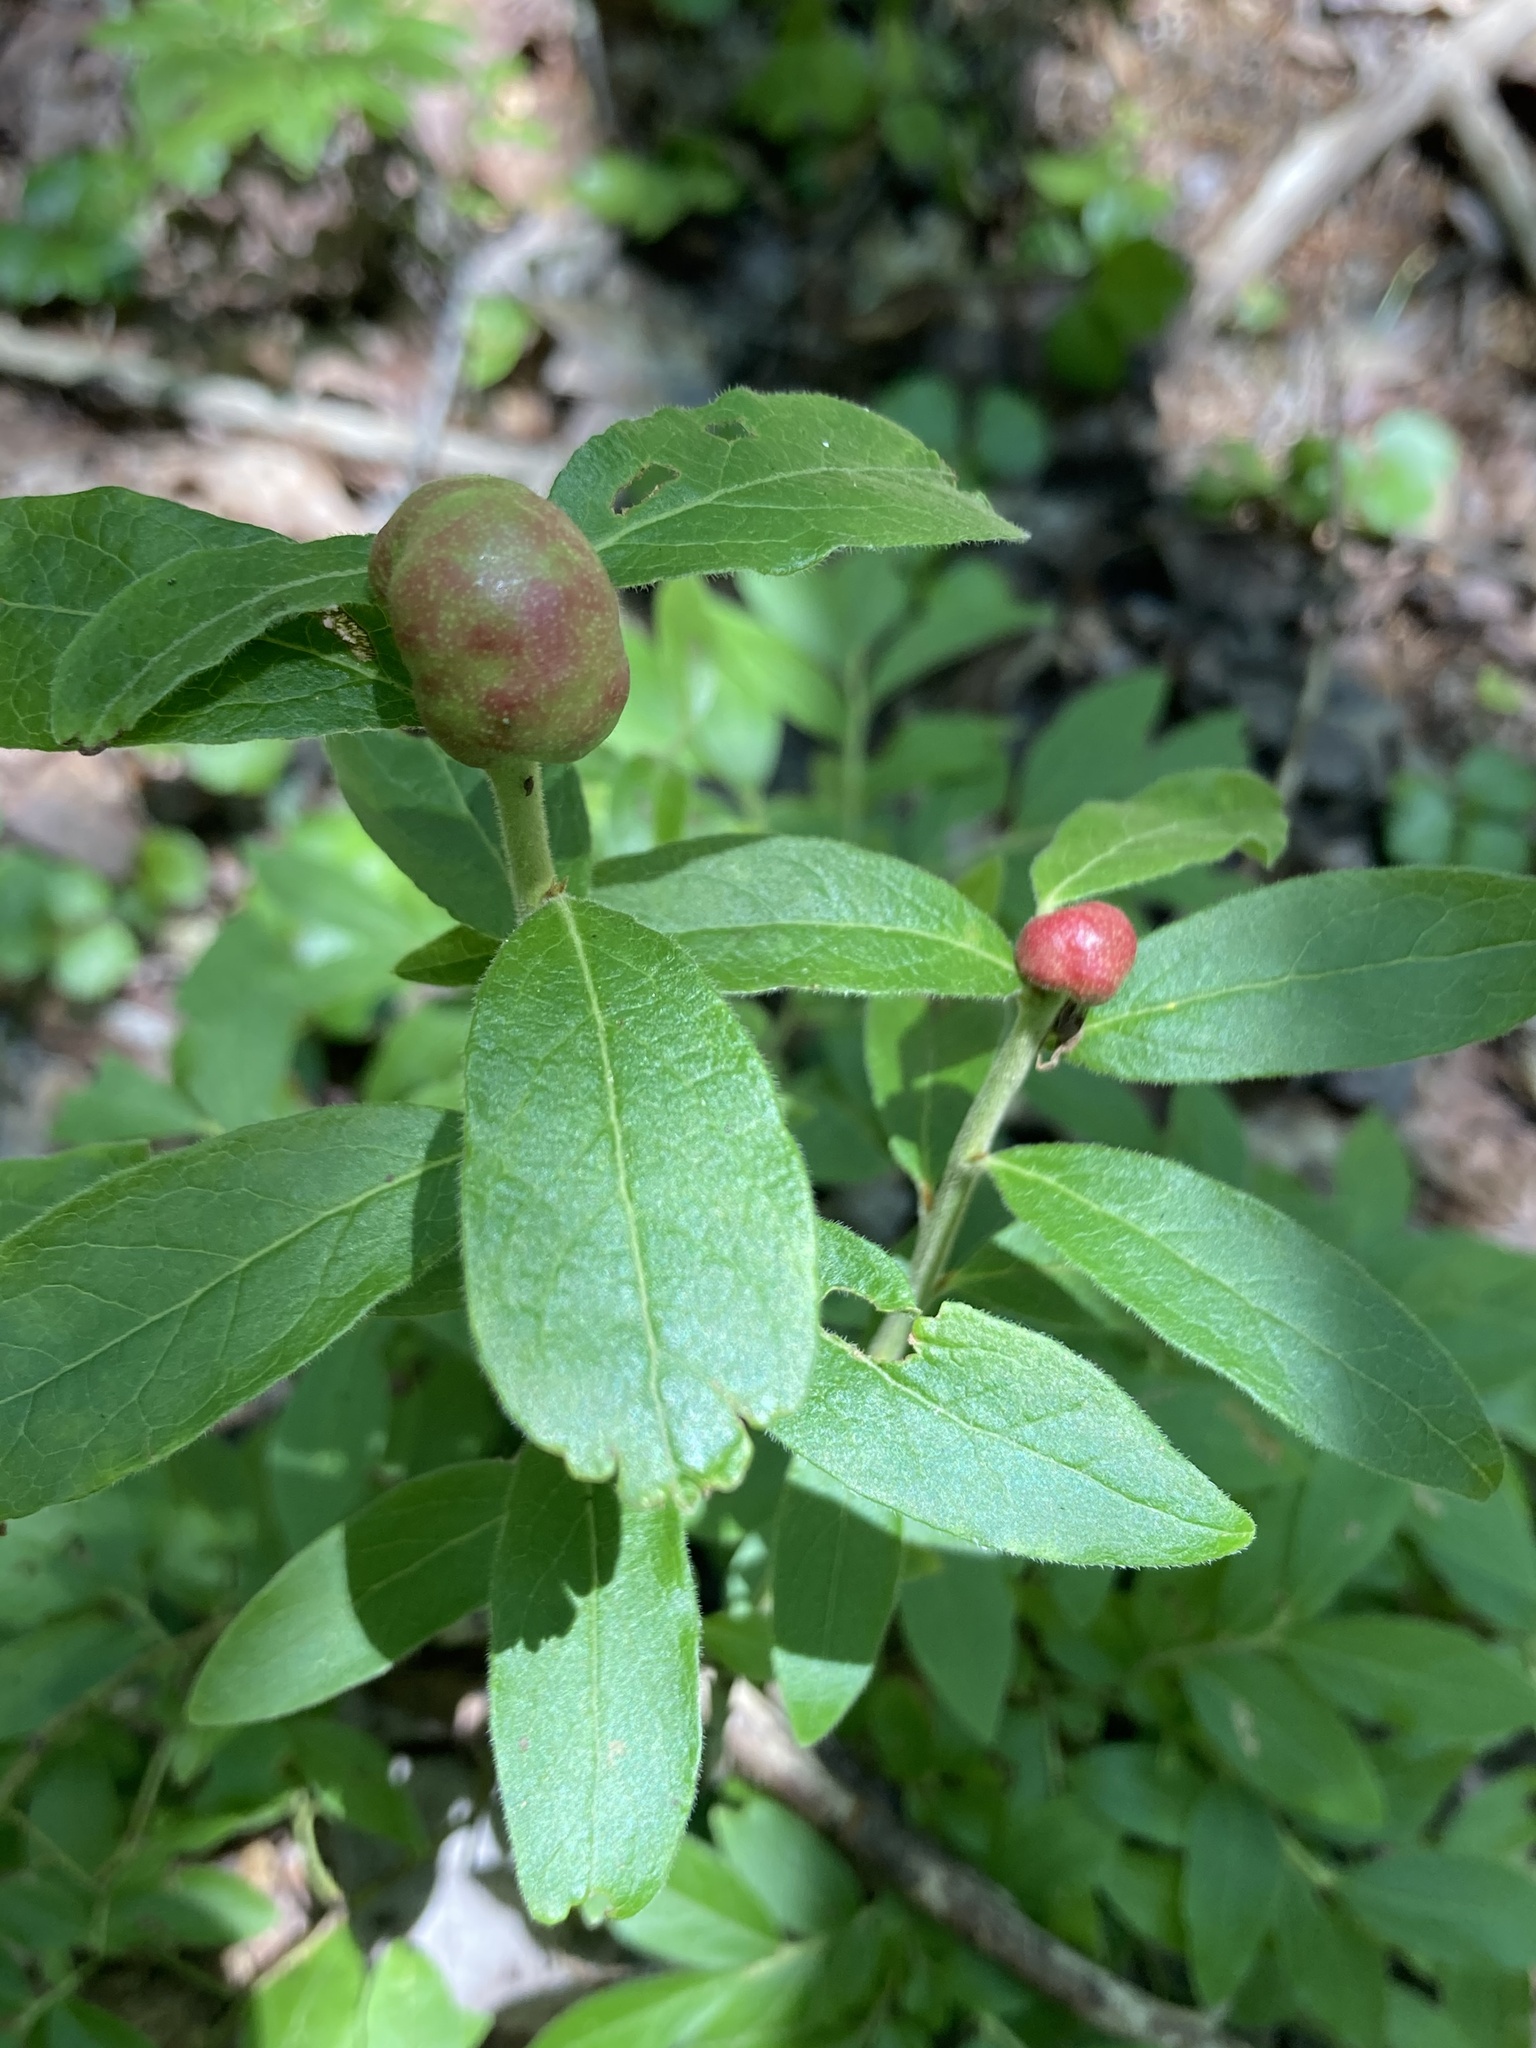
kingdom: Animalia
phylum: Arthropoda
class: Insecta
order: Hymenoptera
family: Pteromalidae
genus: Hemadas
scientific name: Hemadas nubilipennis
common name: Blueberry stem gall wasp
